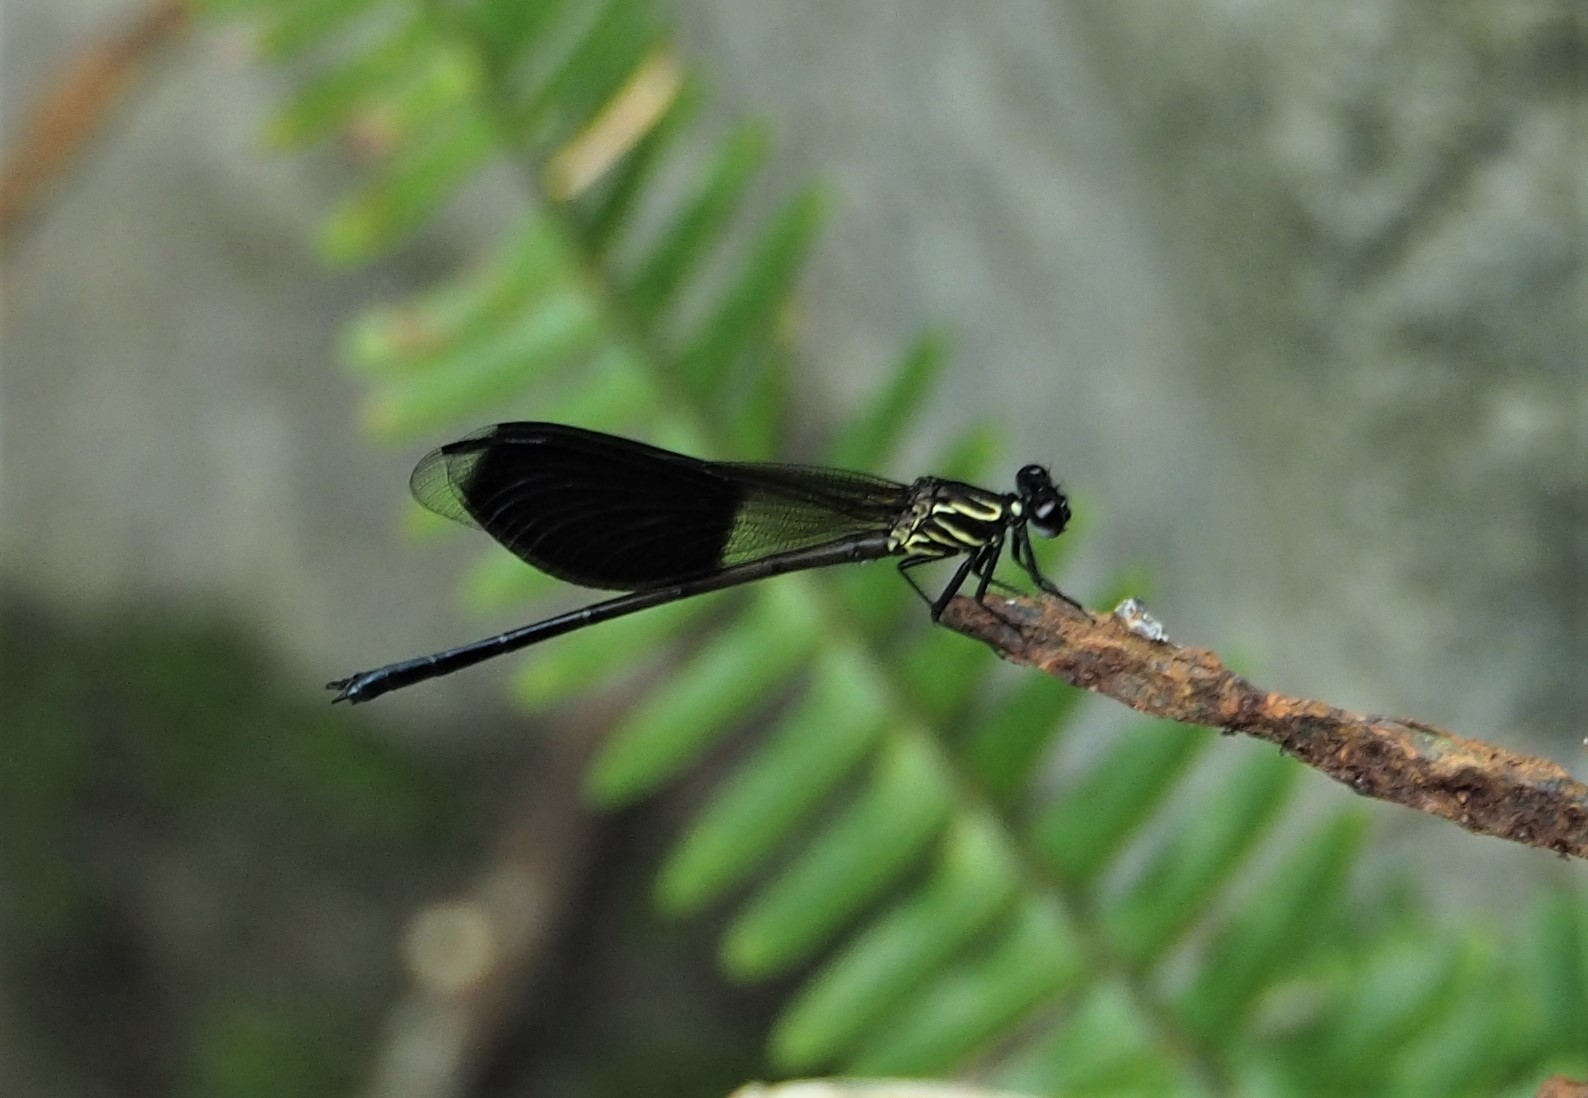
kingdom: Animalia
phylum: Arthropoda
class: Insecta
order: Odonata
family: Euphaeidae
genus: Euphaea
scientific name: Euphaea formosa
